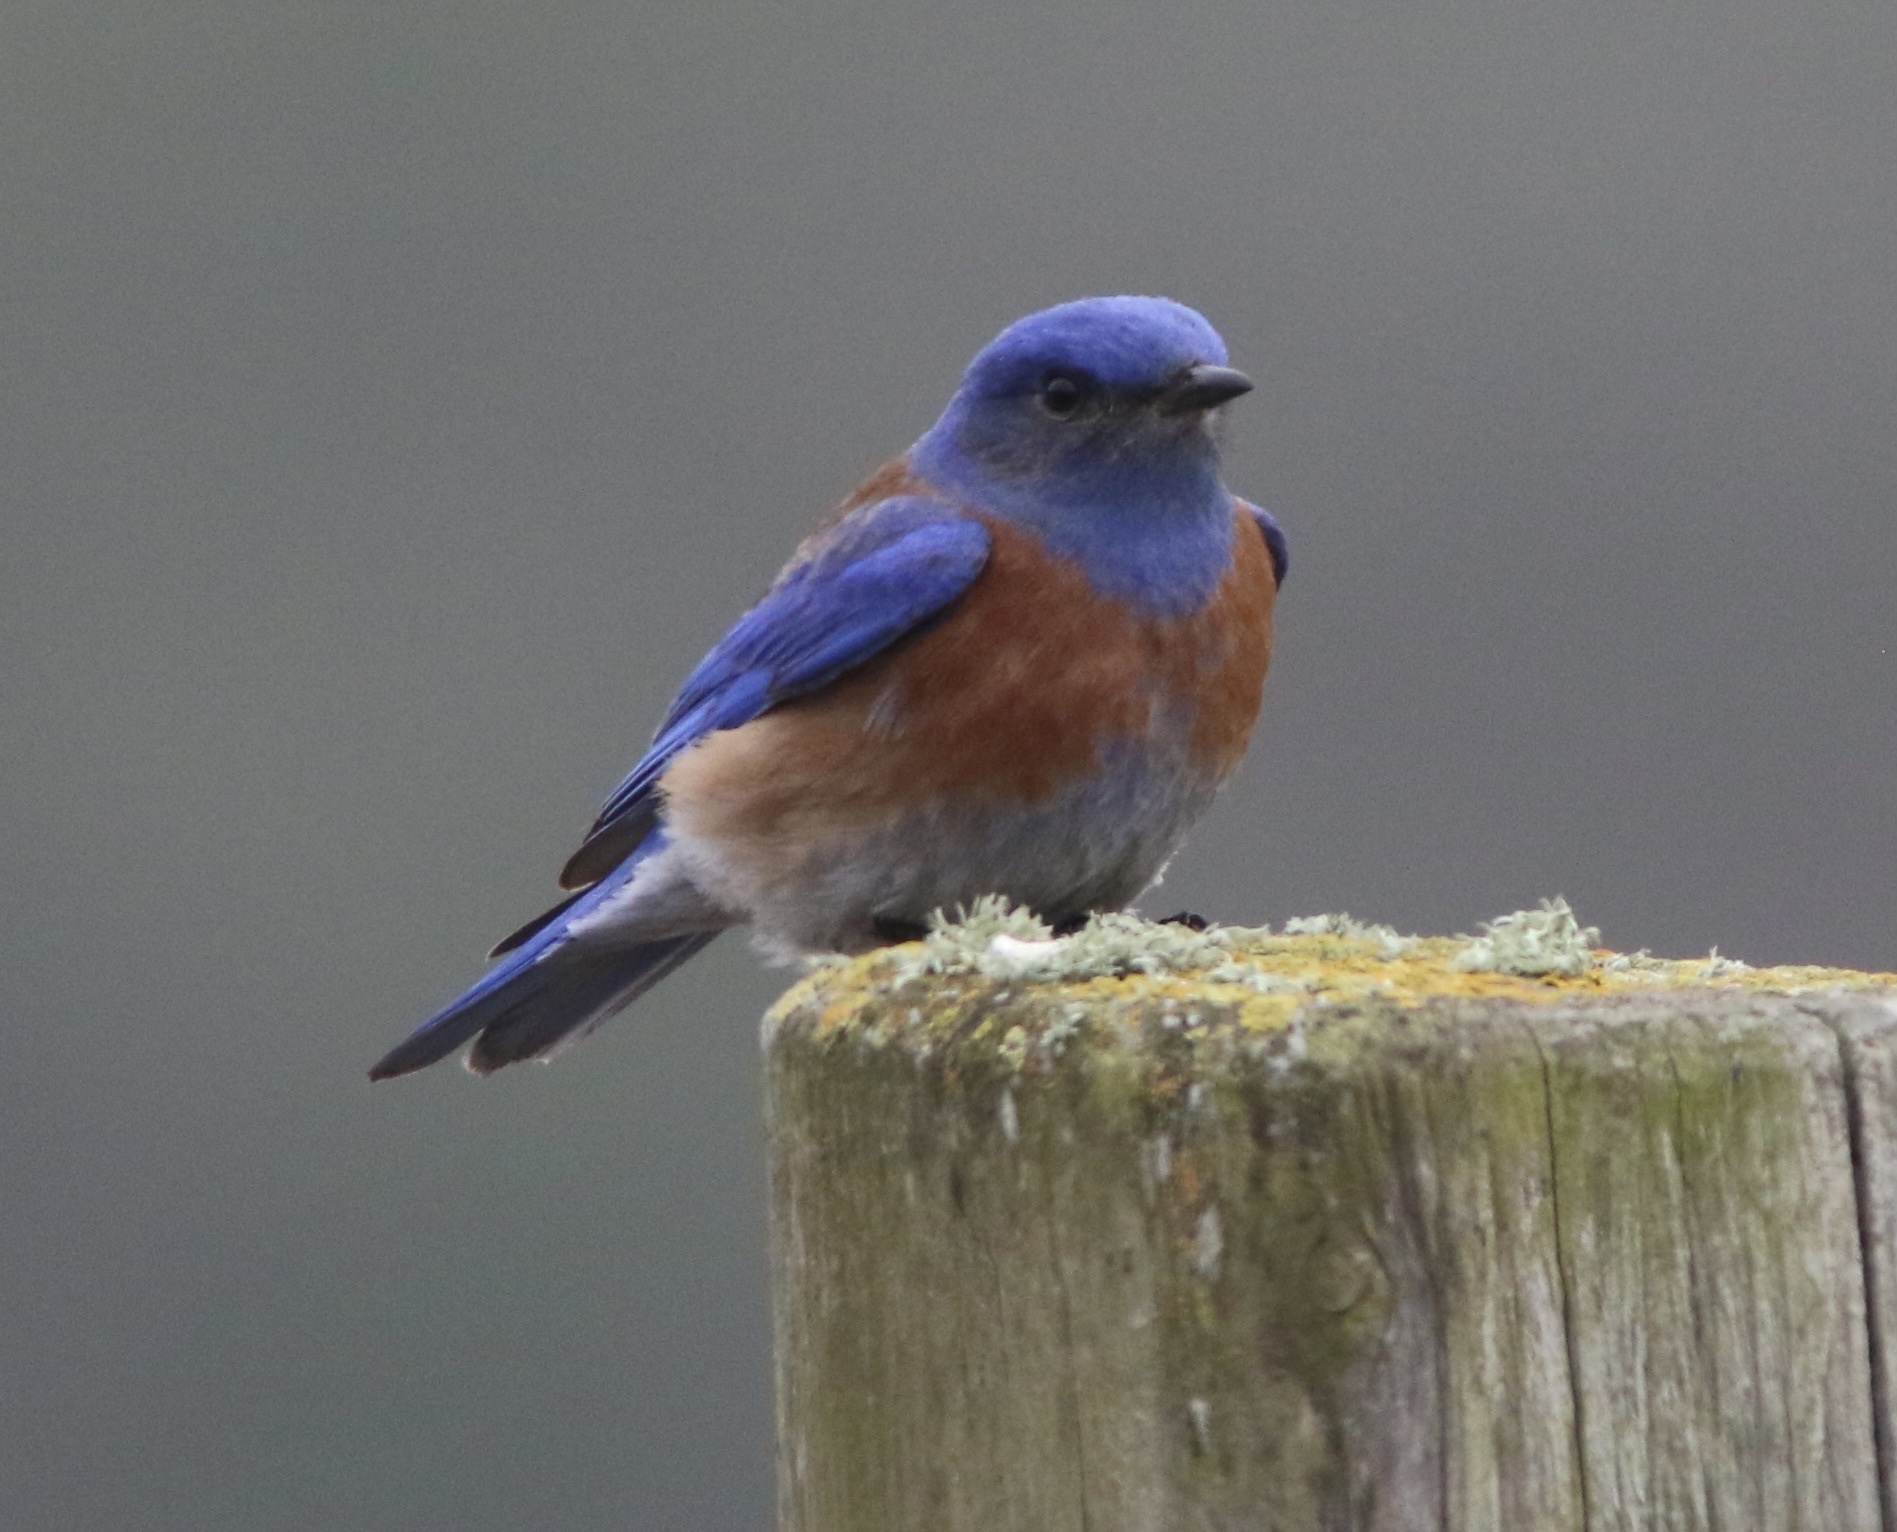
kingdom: Animalia
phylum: Chordata
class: Aves
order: Passeriformes
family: Turdidae
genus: Sialia
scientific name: Sialia mexicana
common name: Western bluebird
